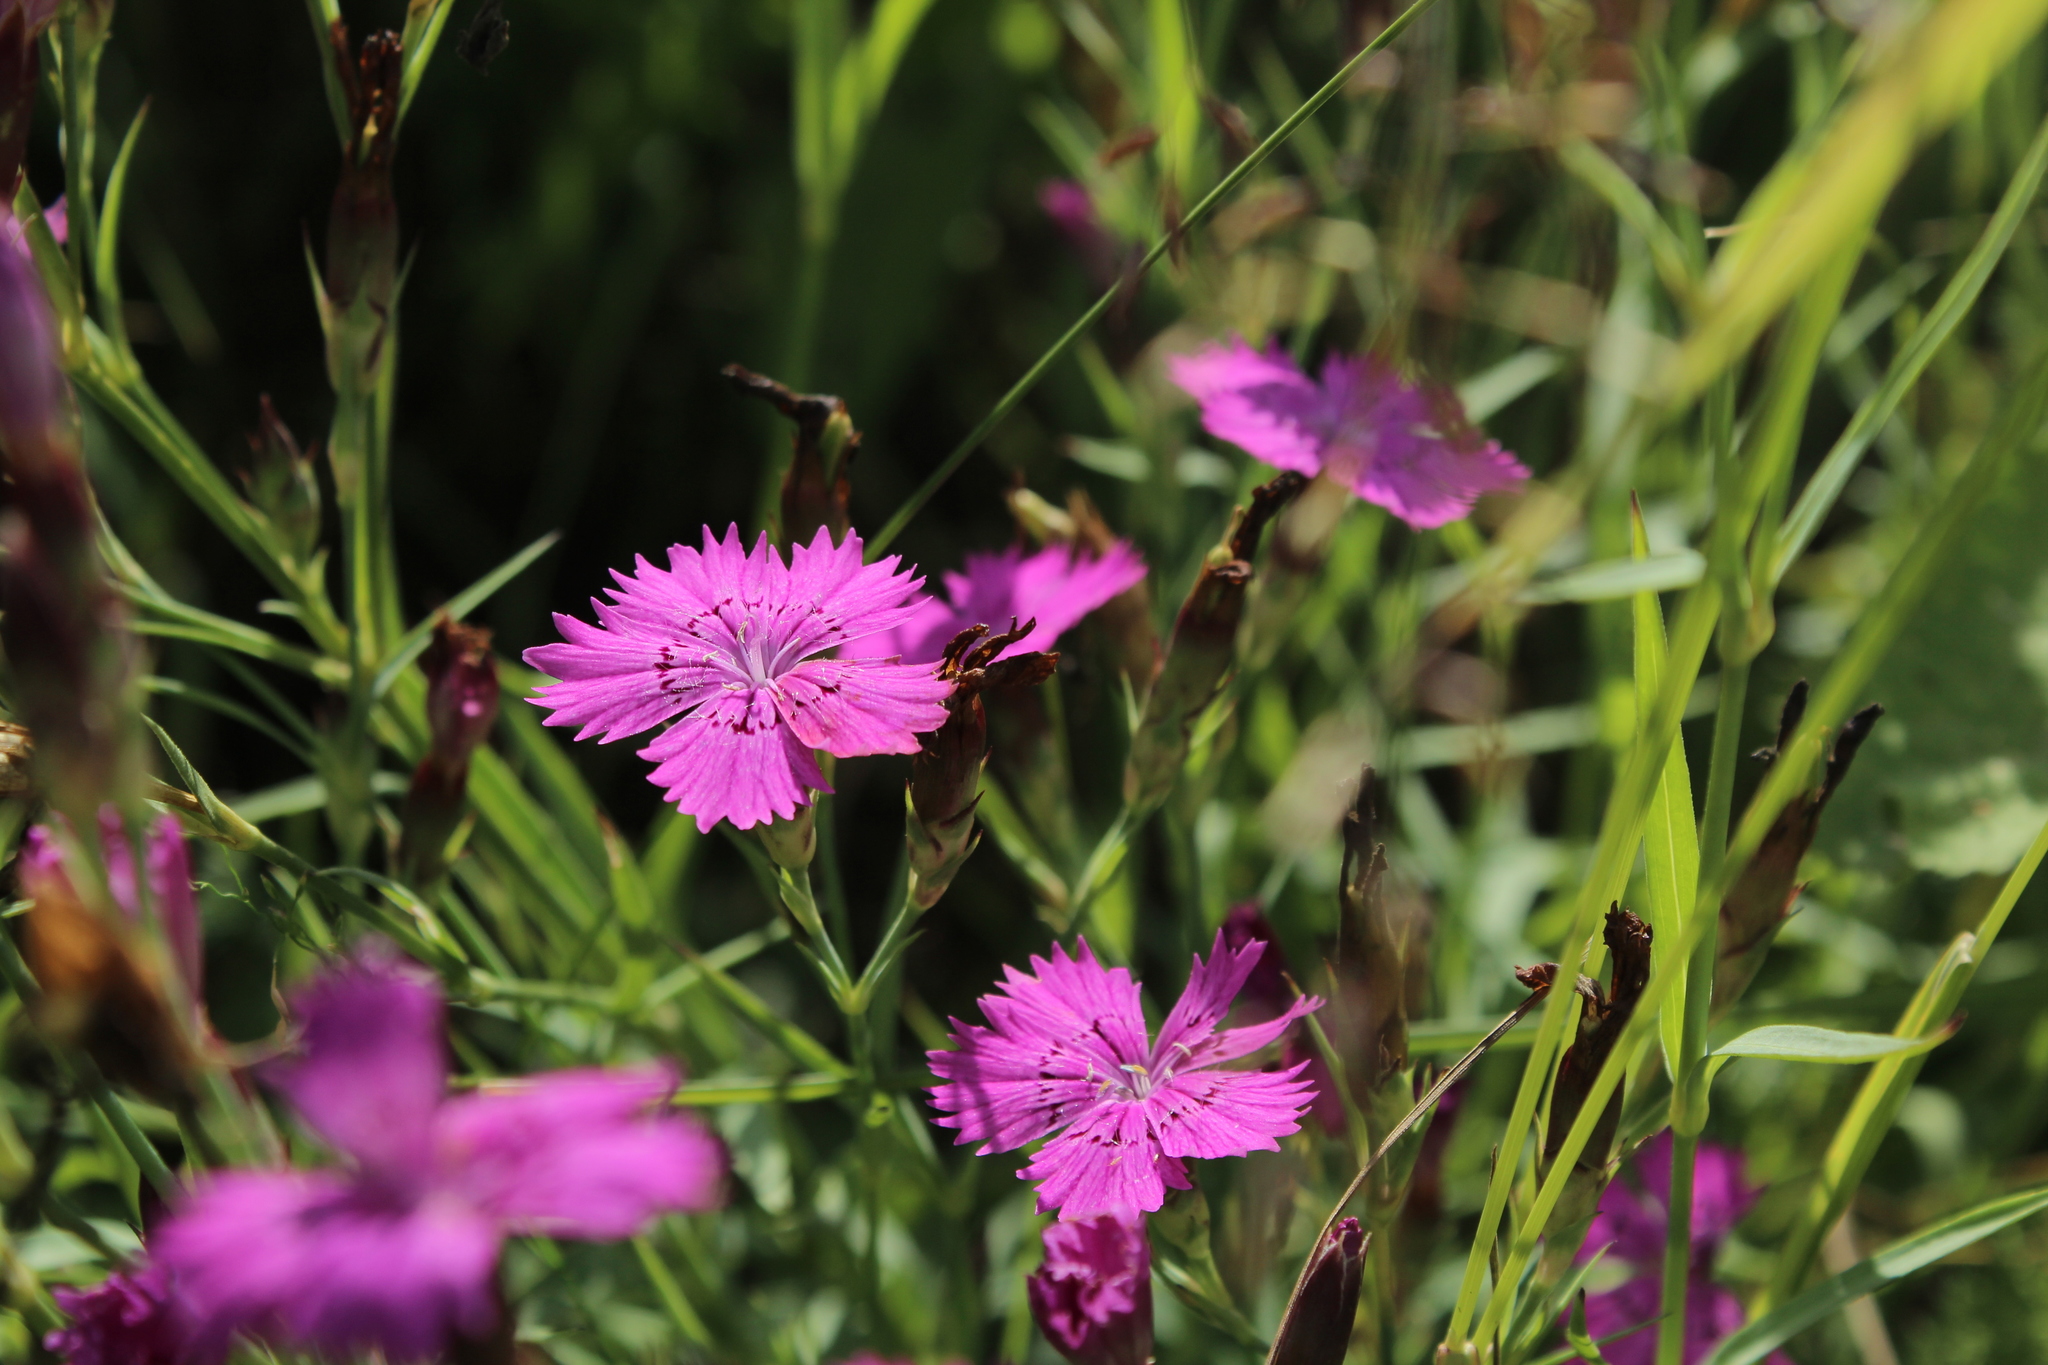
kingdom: Plantae
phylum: Tracheophyta
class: Magnoliopsida
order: Caryophyllales
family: Caryophyllaceae
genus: Dianthus
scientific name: Dianthus chinensis
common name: Rainbow pink
